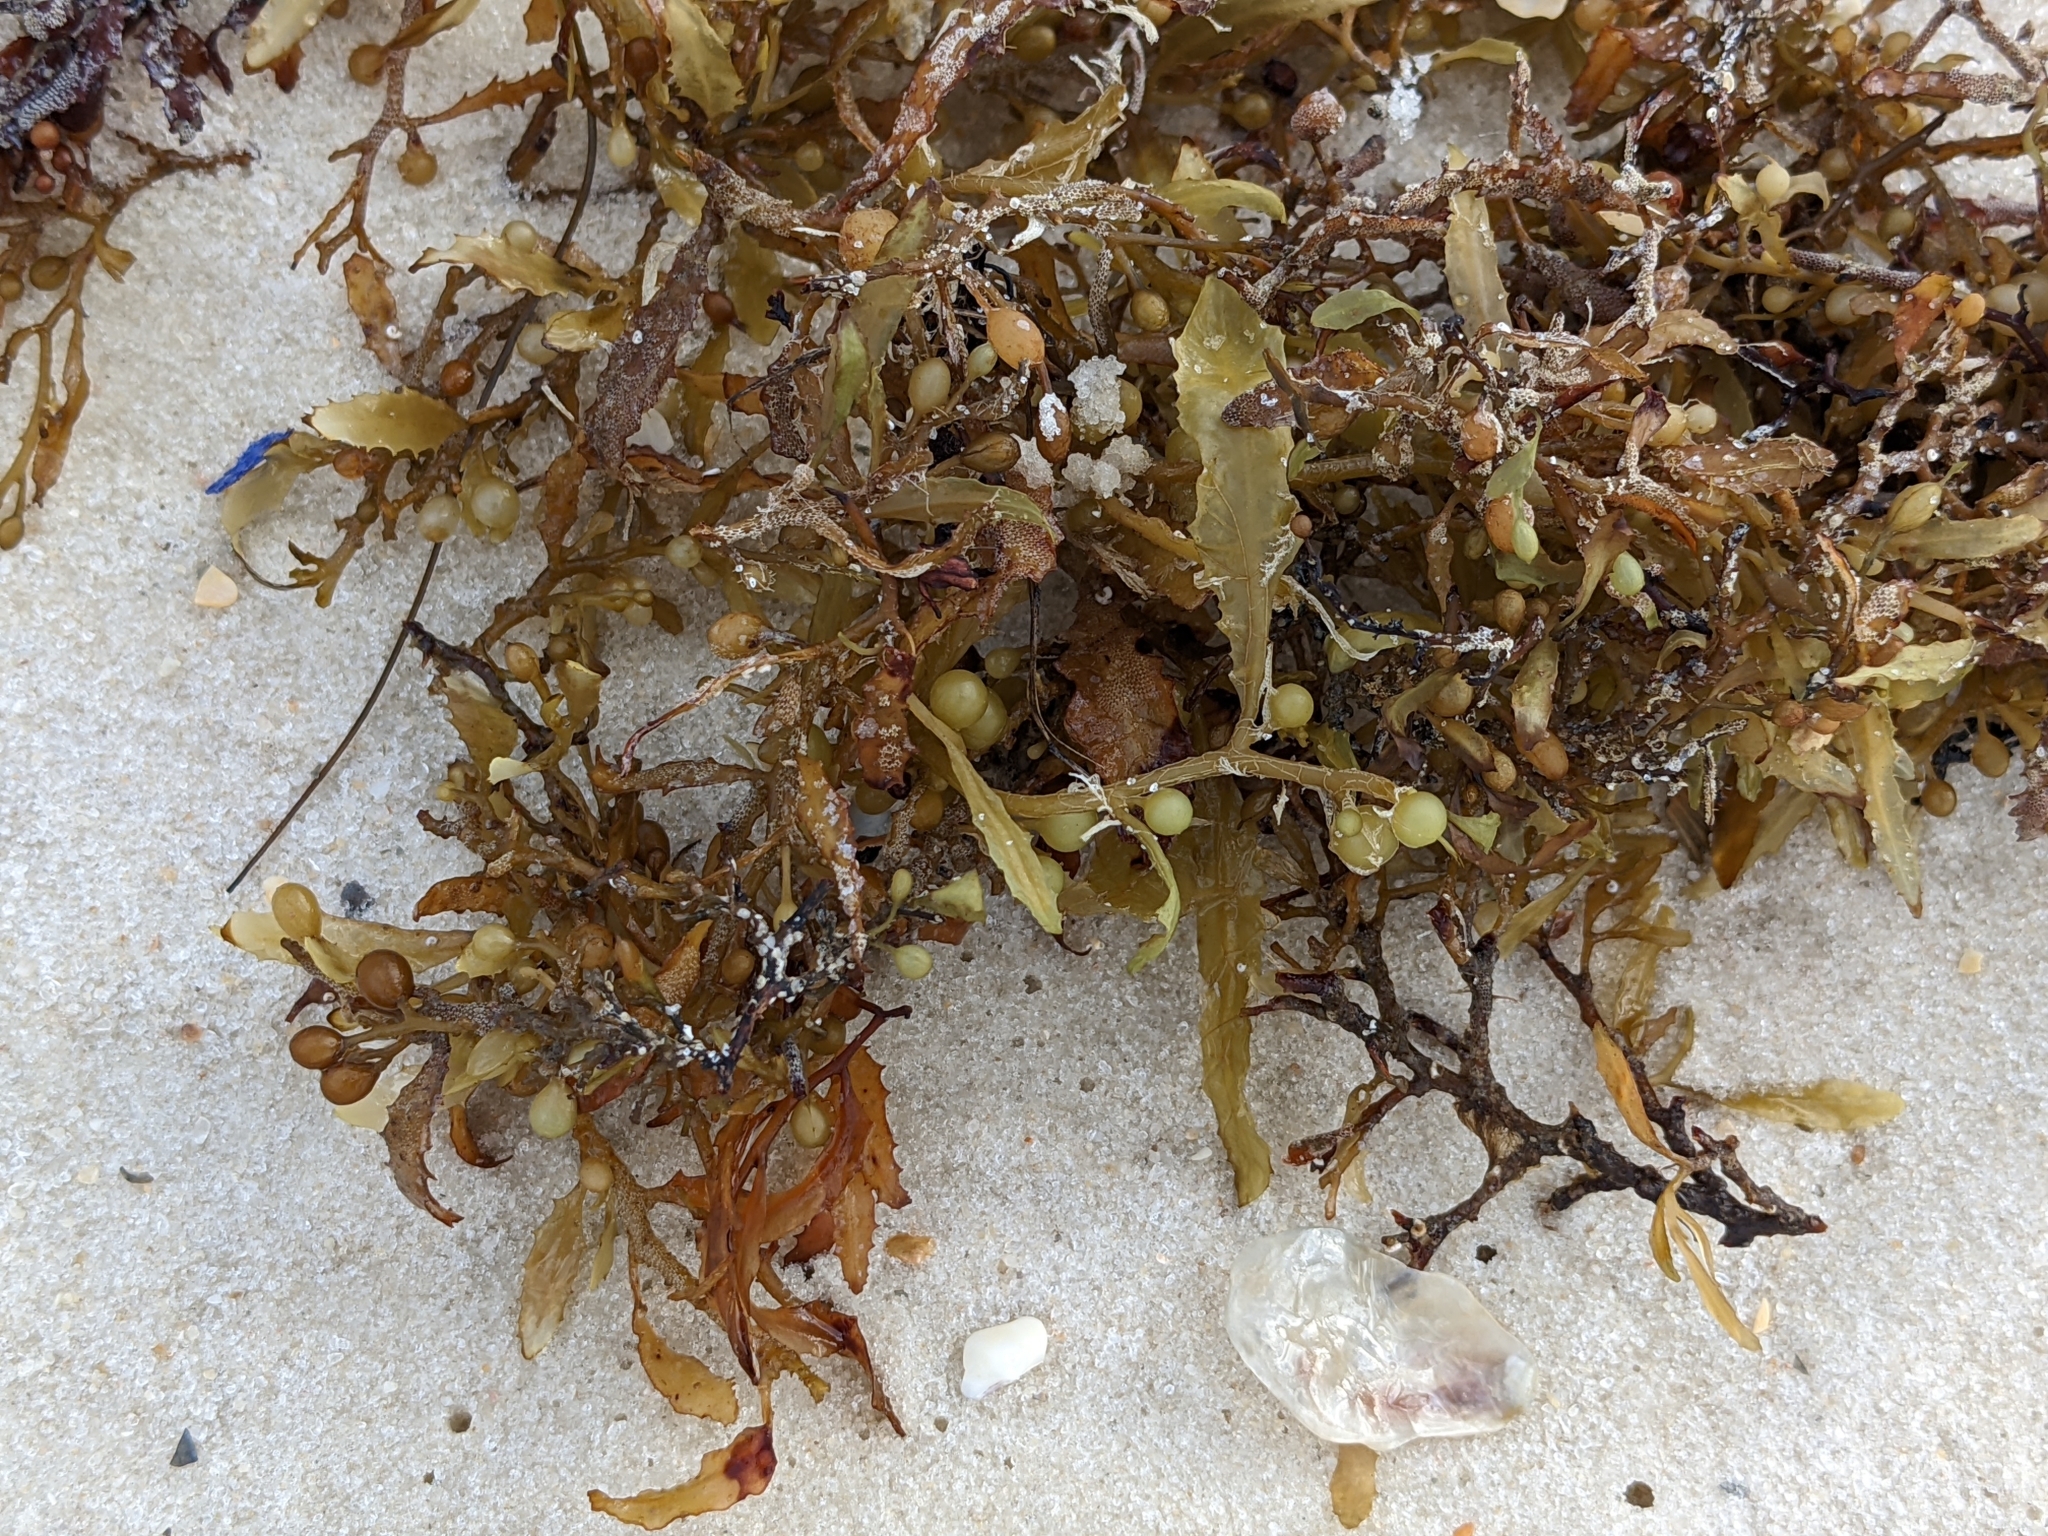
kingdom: Chromista
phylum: Ochrophyta
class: Phaeophyceae
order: Fucales
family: Sargassaceae
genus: Sargassum
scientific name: Sargassum fluitans
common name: Sargassum seaweed
